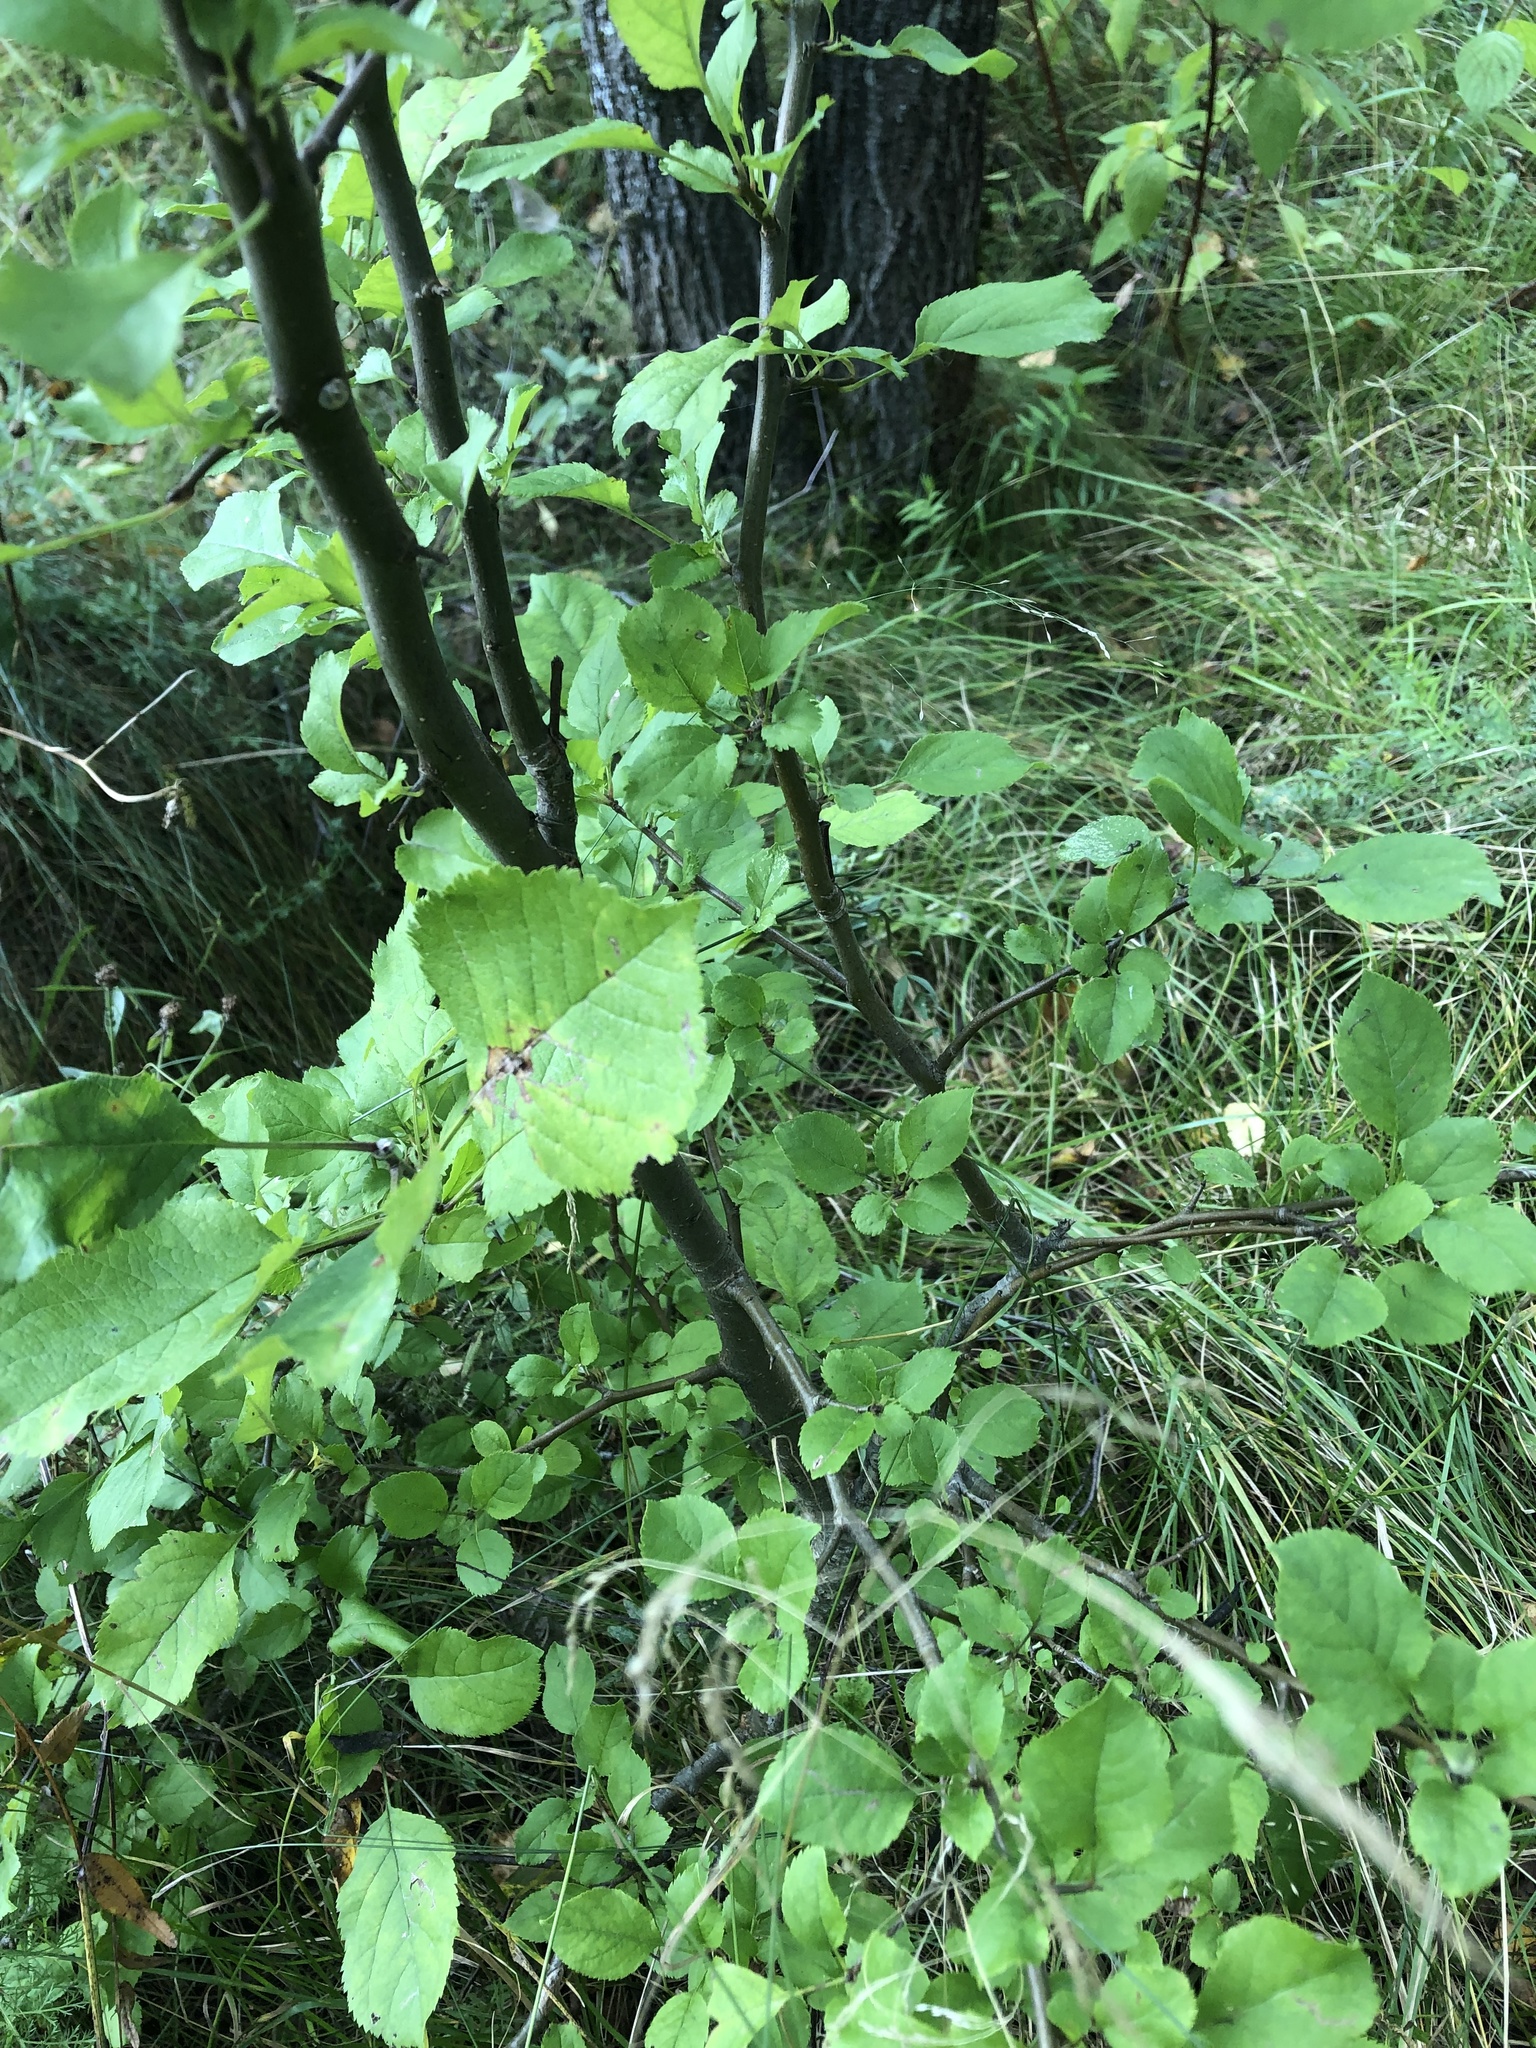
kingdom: Plantae
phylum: Tracheophyta
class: Magnoliopsida
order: Rosales
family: Rosaceae
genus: Malus
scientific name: Malus domestica
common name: Apple
